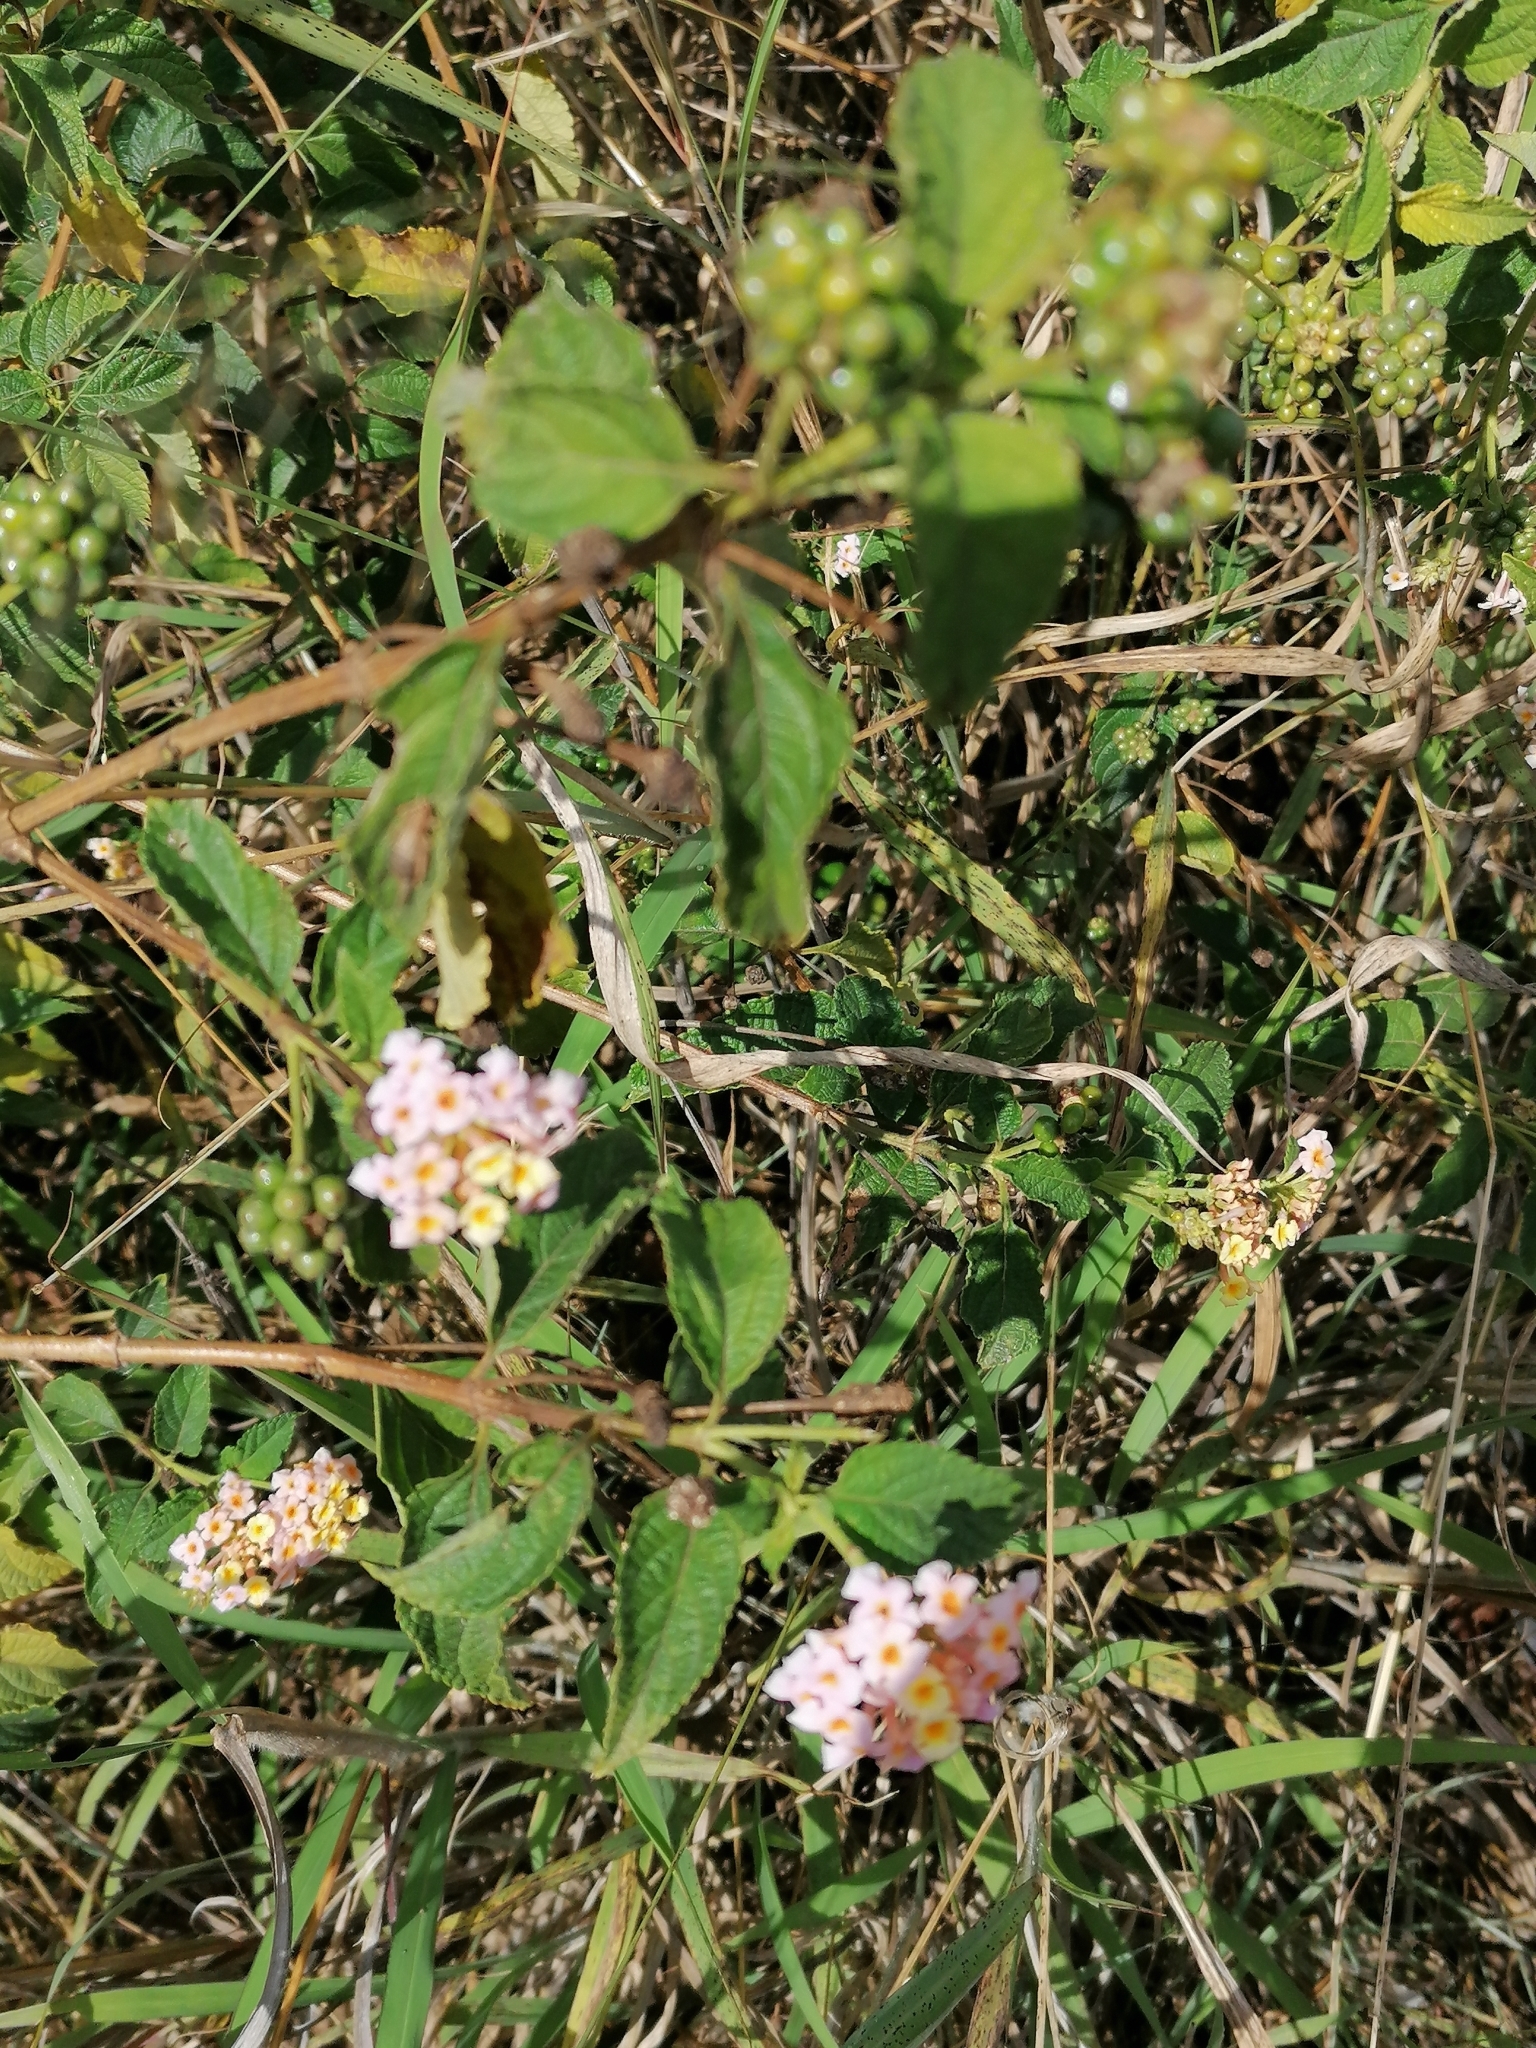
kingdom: Plantae
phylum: Tracheophyta
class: Magnoliopsida
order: Lamiales
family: Verbenaceae
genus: Lantana
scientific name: Lantana camara
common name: Lantana
